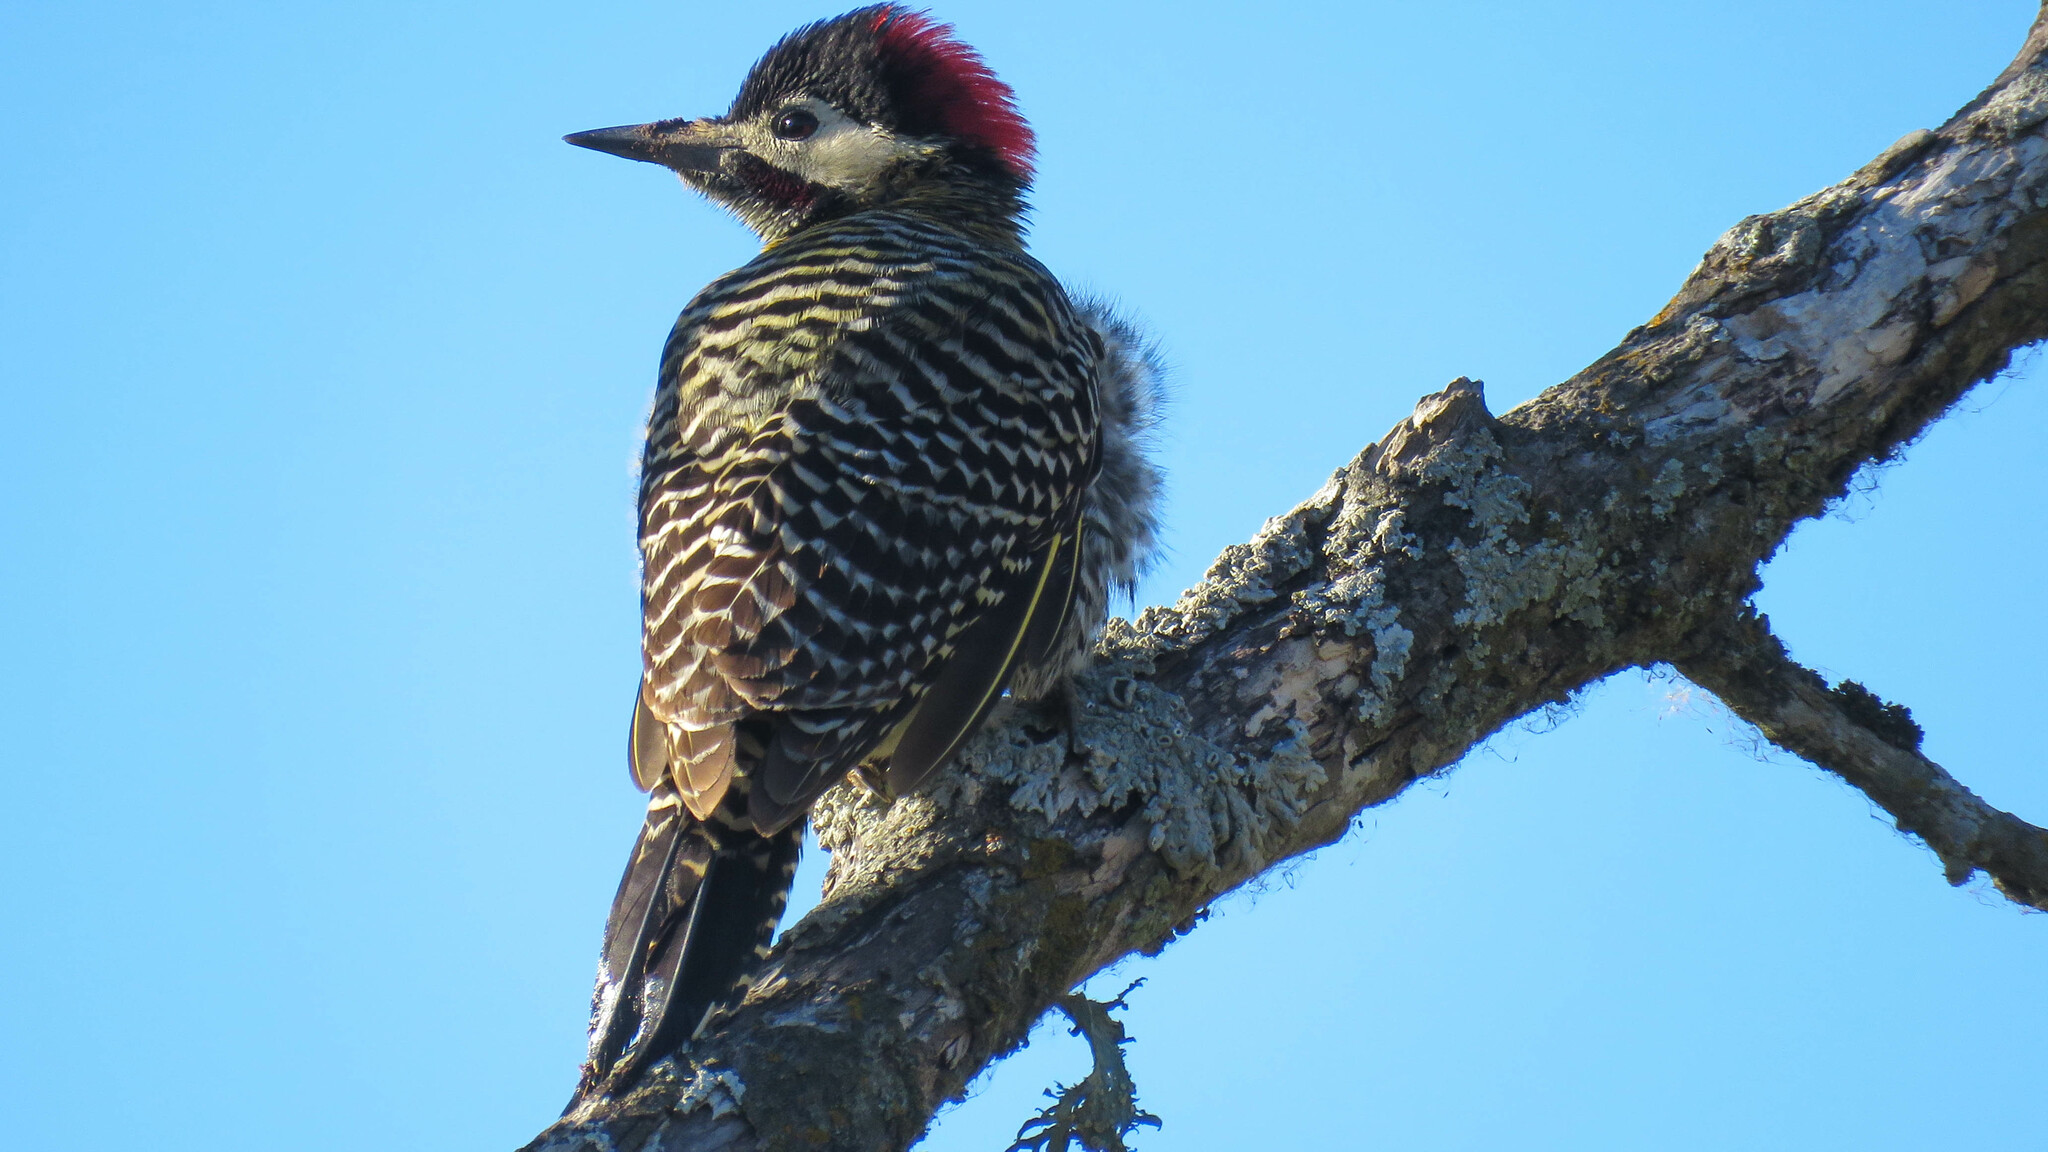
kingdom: Animalia
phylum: Chordata
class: Aves
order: Piciformes
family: Picidae
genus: Colaptes
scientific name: Colaptes melanochloros
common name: Green-barred woodpecker
